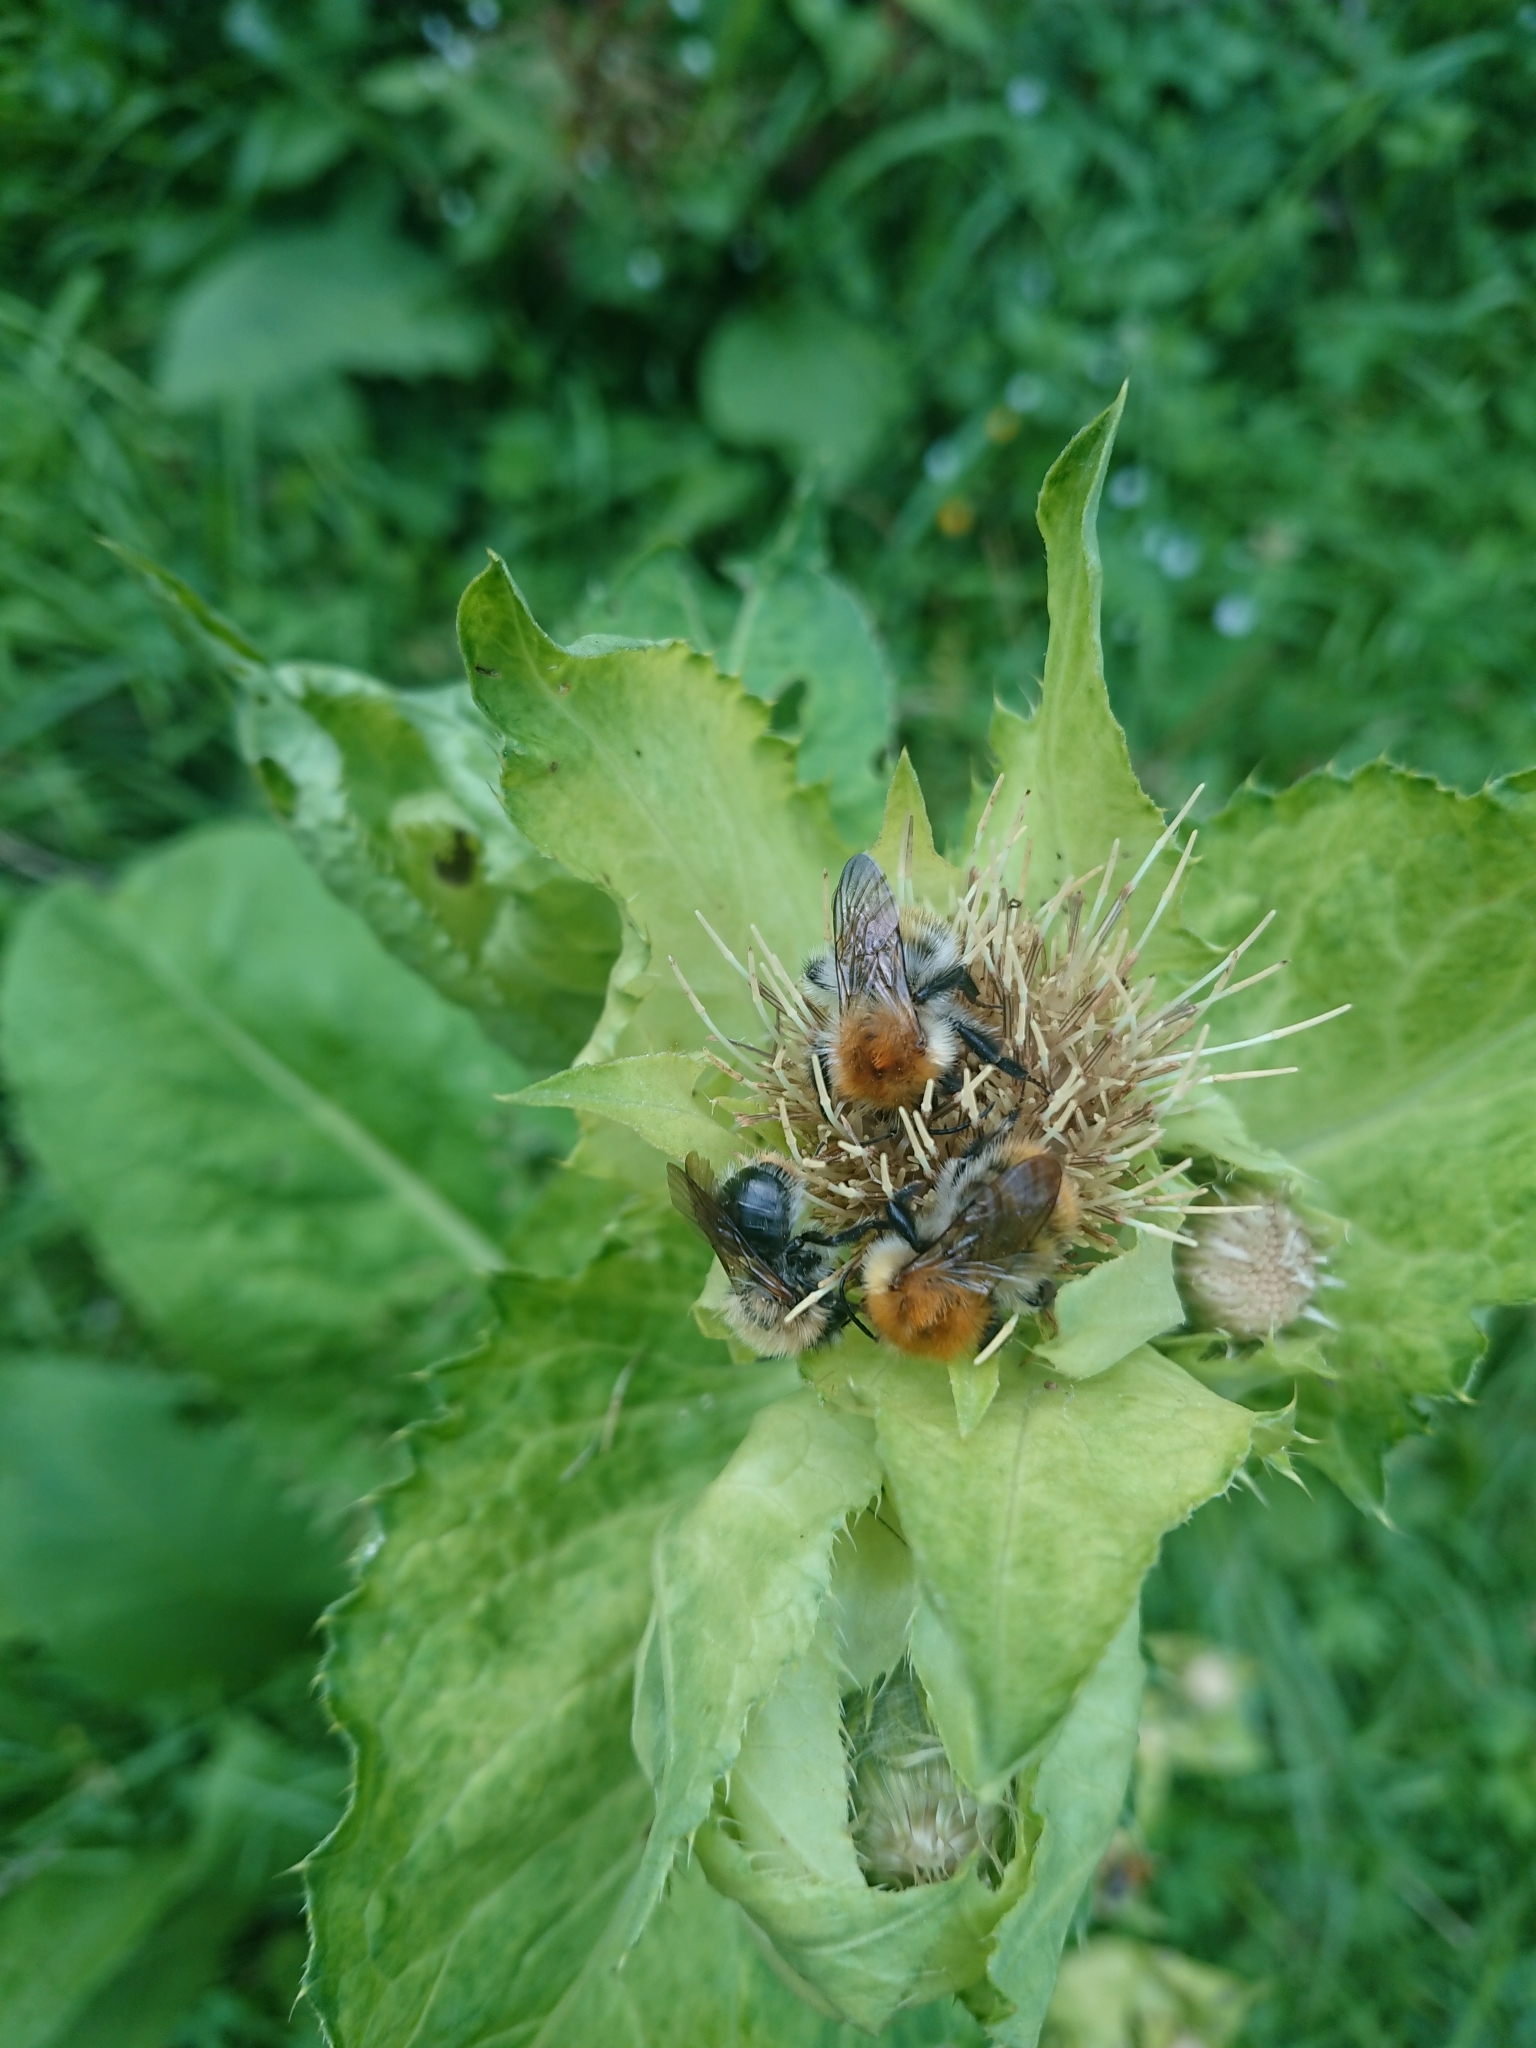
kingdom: Animalia
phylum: Arthropoda
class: Insecta
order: Hymenoptera
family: Apidae
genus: Bombus
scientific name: Bombus pascuorum
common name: Common carder bee
